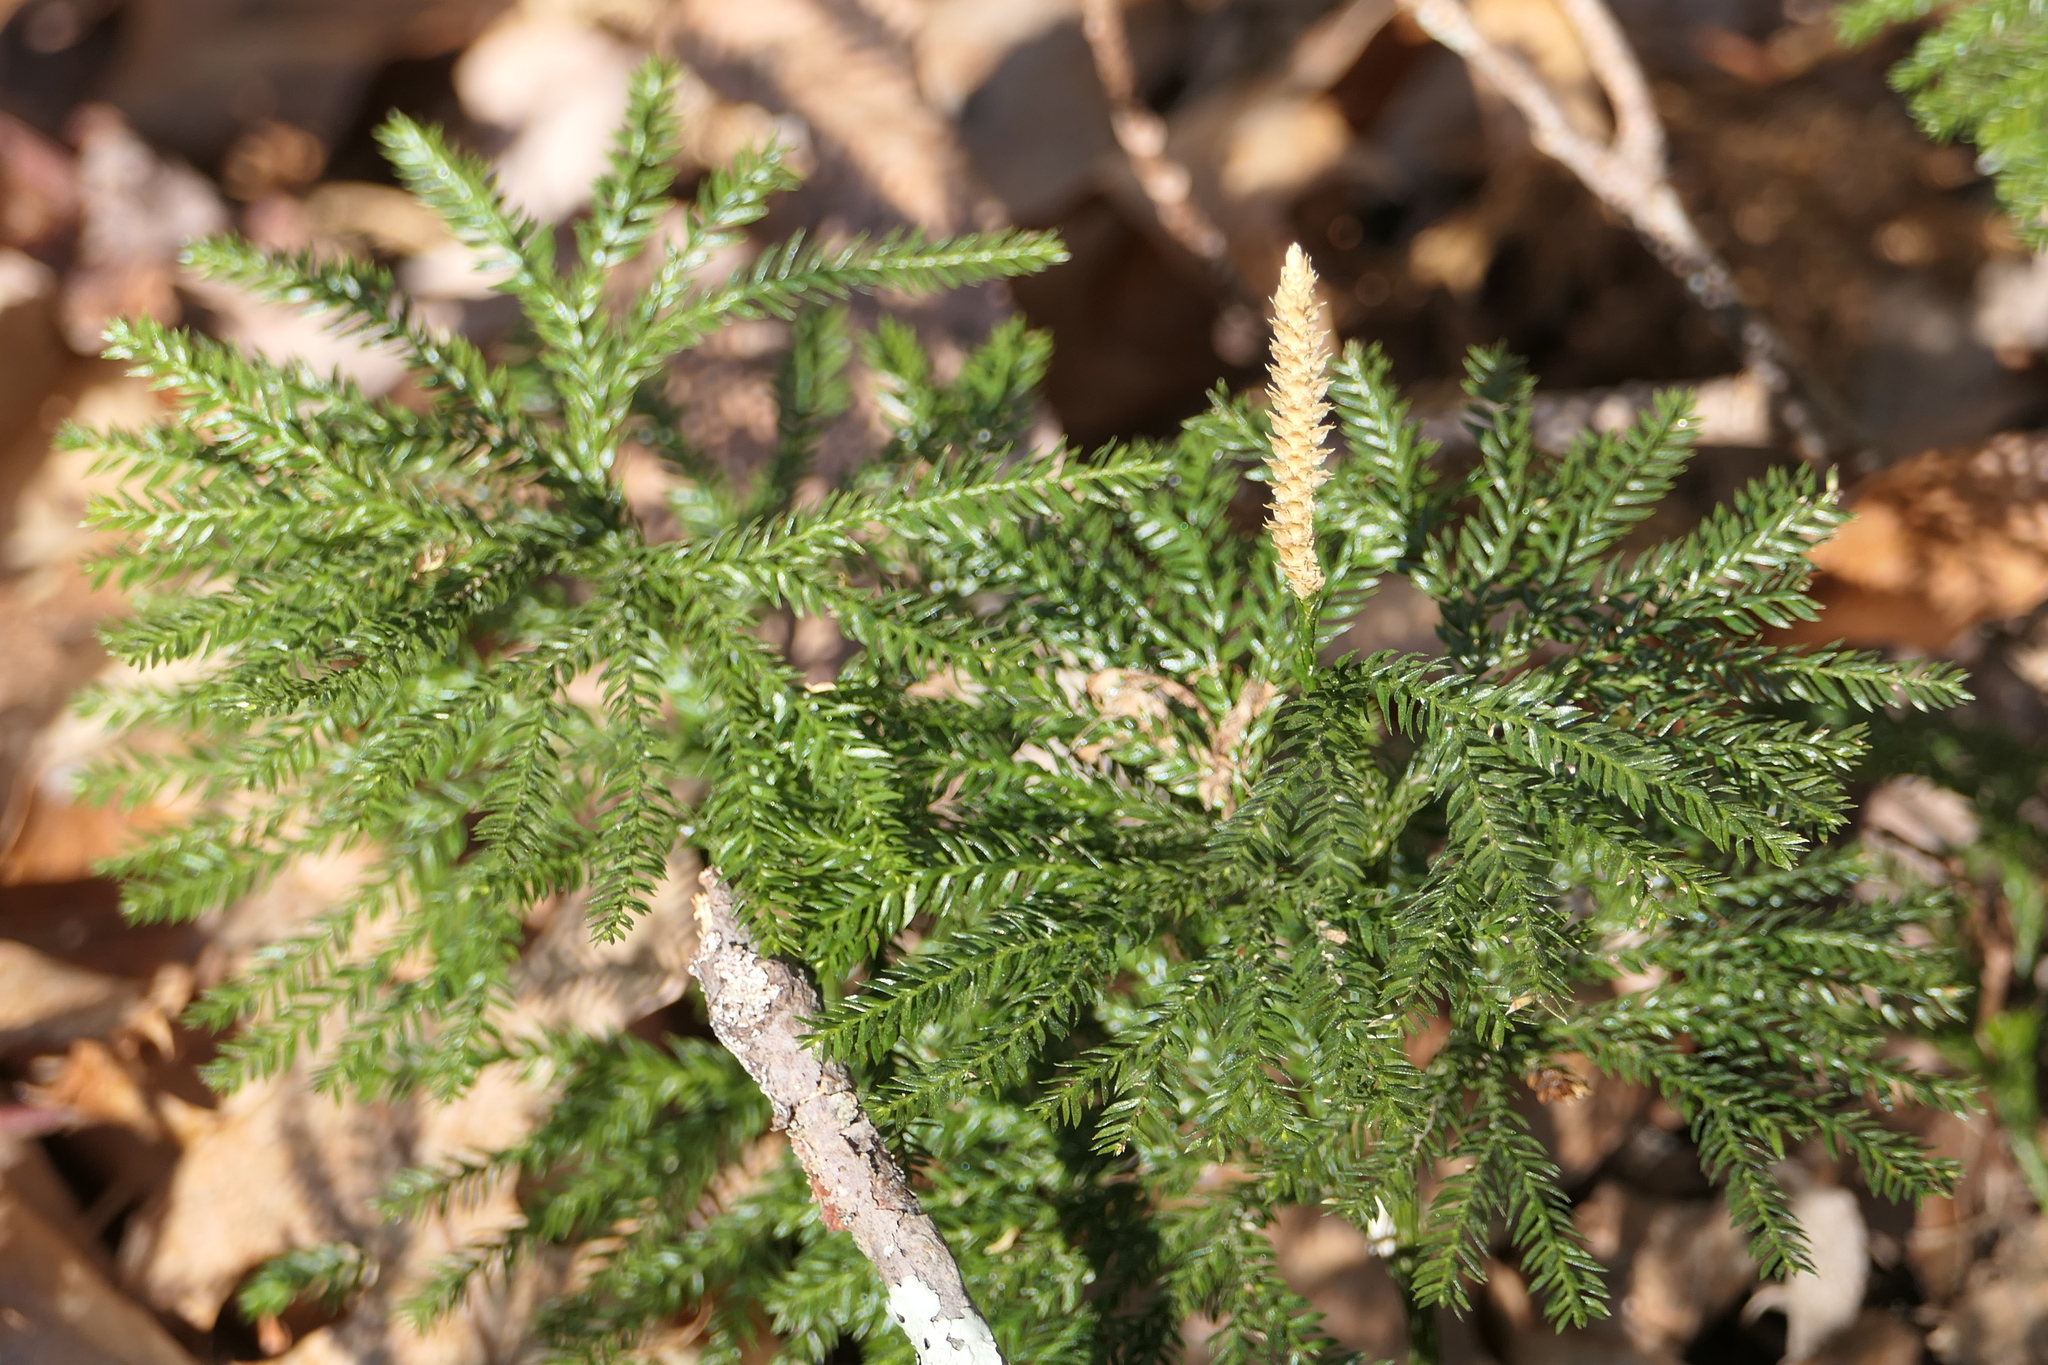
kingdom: Plantae
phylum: Tracheophyta
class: Lycopodiopsida
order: Lycopodiales
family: Lycopodiaceae
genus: Dendrolycopodium
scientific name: Dendrolycopodium obscurum
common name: Common ground-pine
